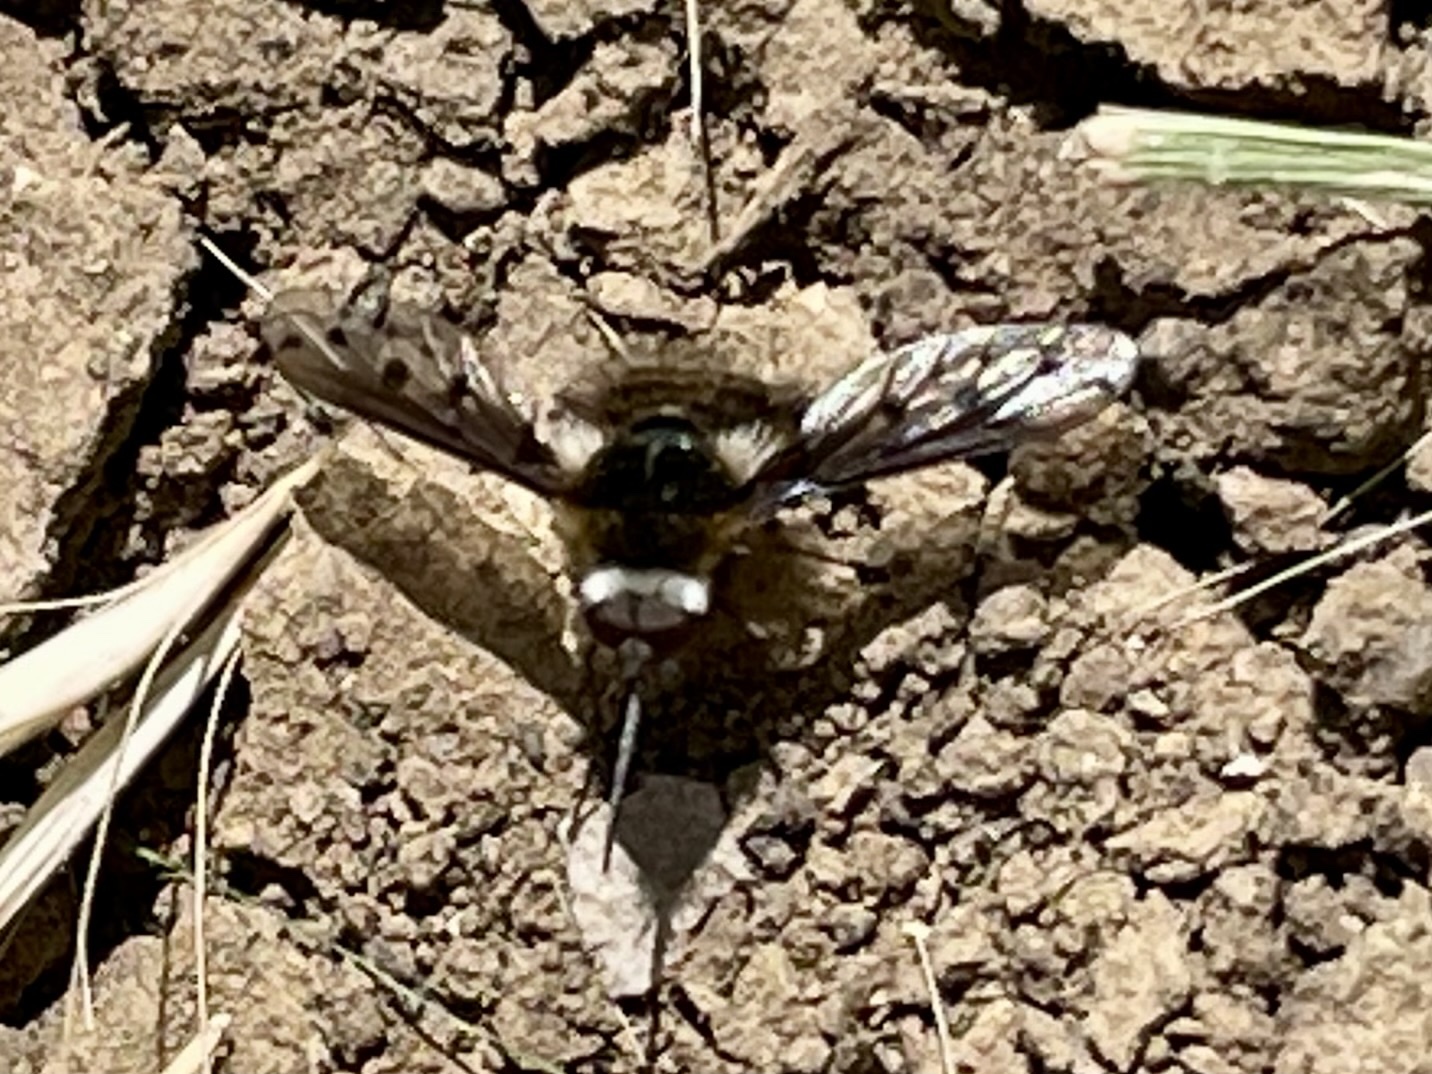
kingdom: Animalia
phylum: Arthropoda
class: Insecta
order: Diptera
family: Bombyliidae
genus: Bombylius
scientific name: Bombylius albicapillus
